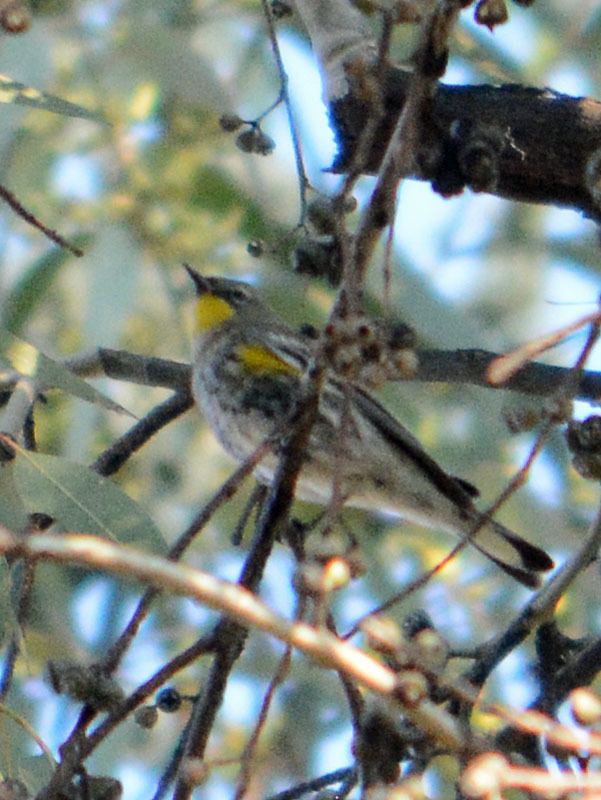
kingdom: Animalia
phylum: Chordata
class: Aves
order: Passeriformes
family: Parulidae
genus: Setophaga
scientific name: Setophaga auduboni
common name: Audubon's warbler
